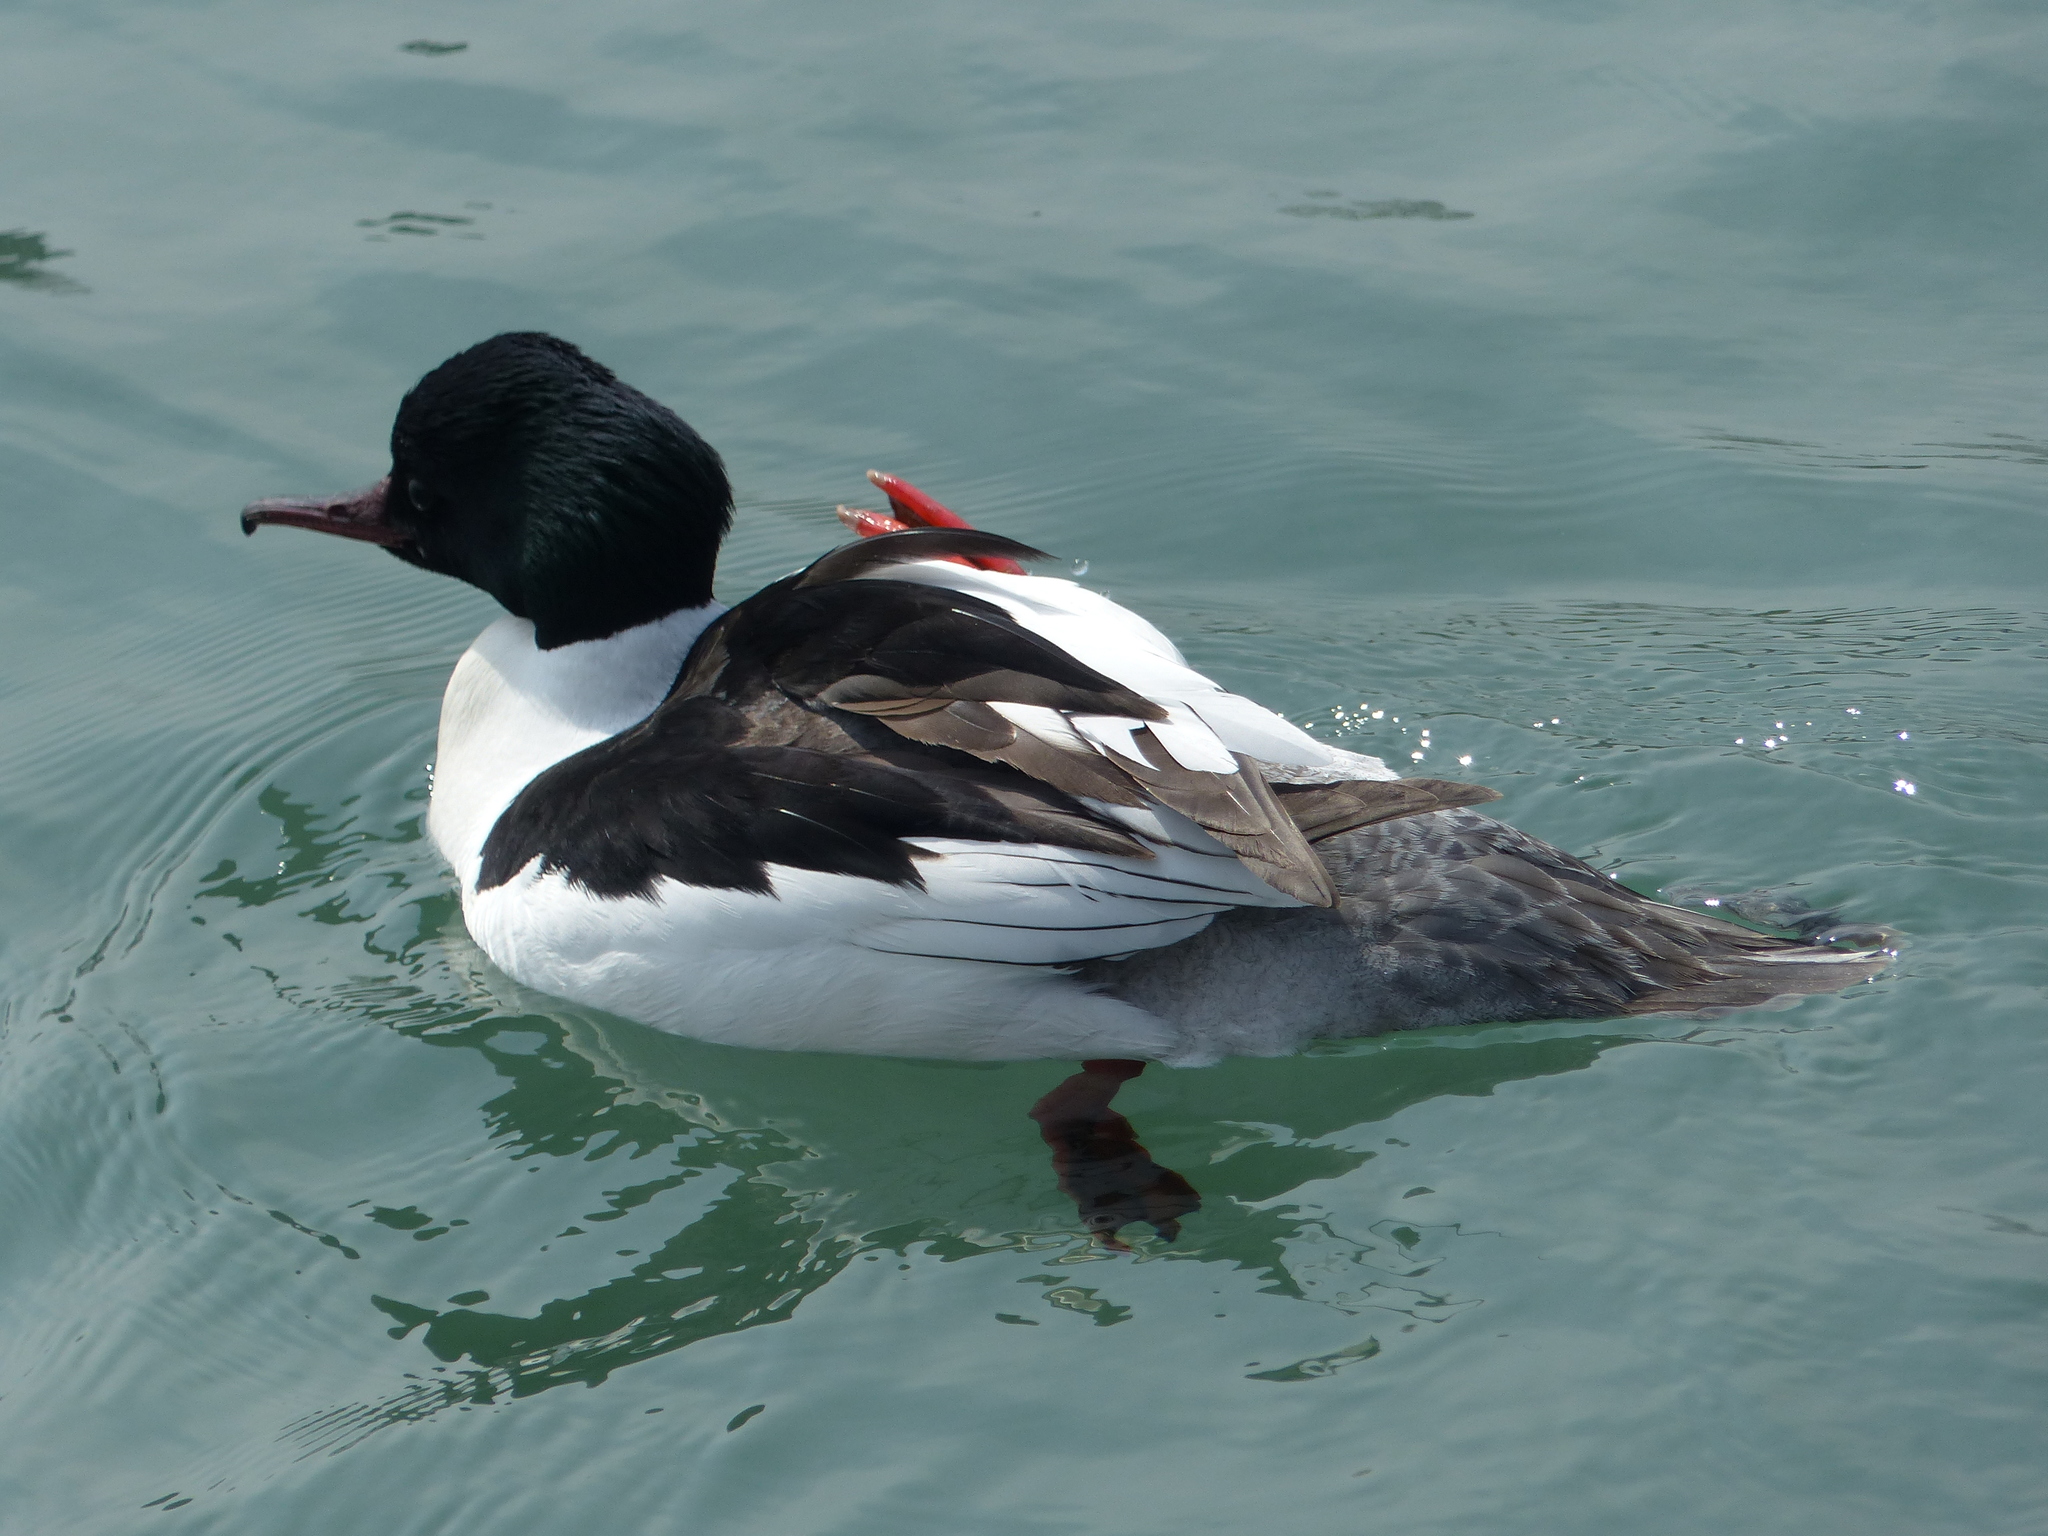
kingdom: Animalia
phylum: Chordata
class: Aves
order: Anseriformes
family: Anatidae
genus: Mergus
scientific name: Mergus merganser
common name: Common merganser
